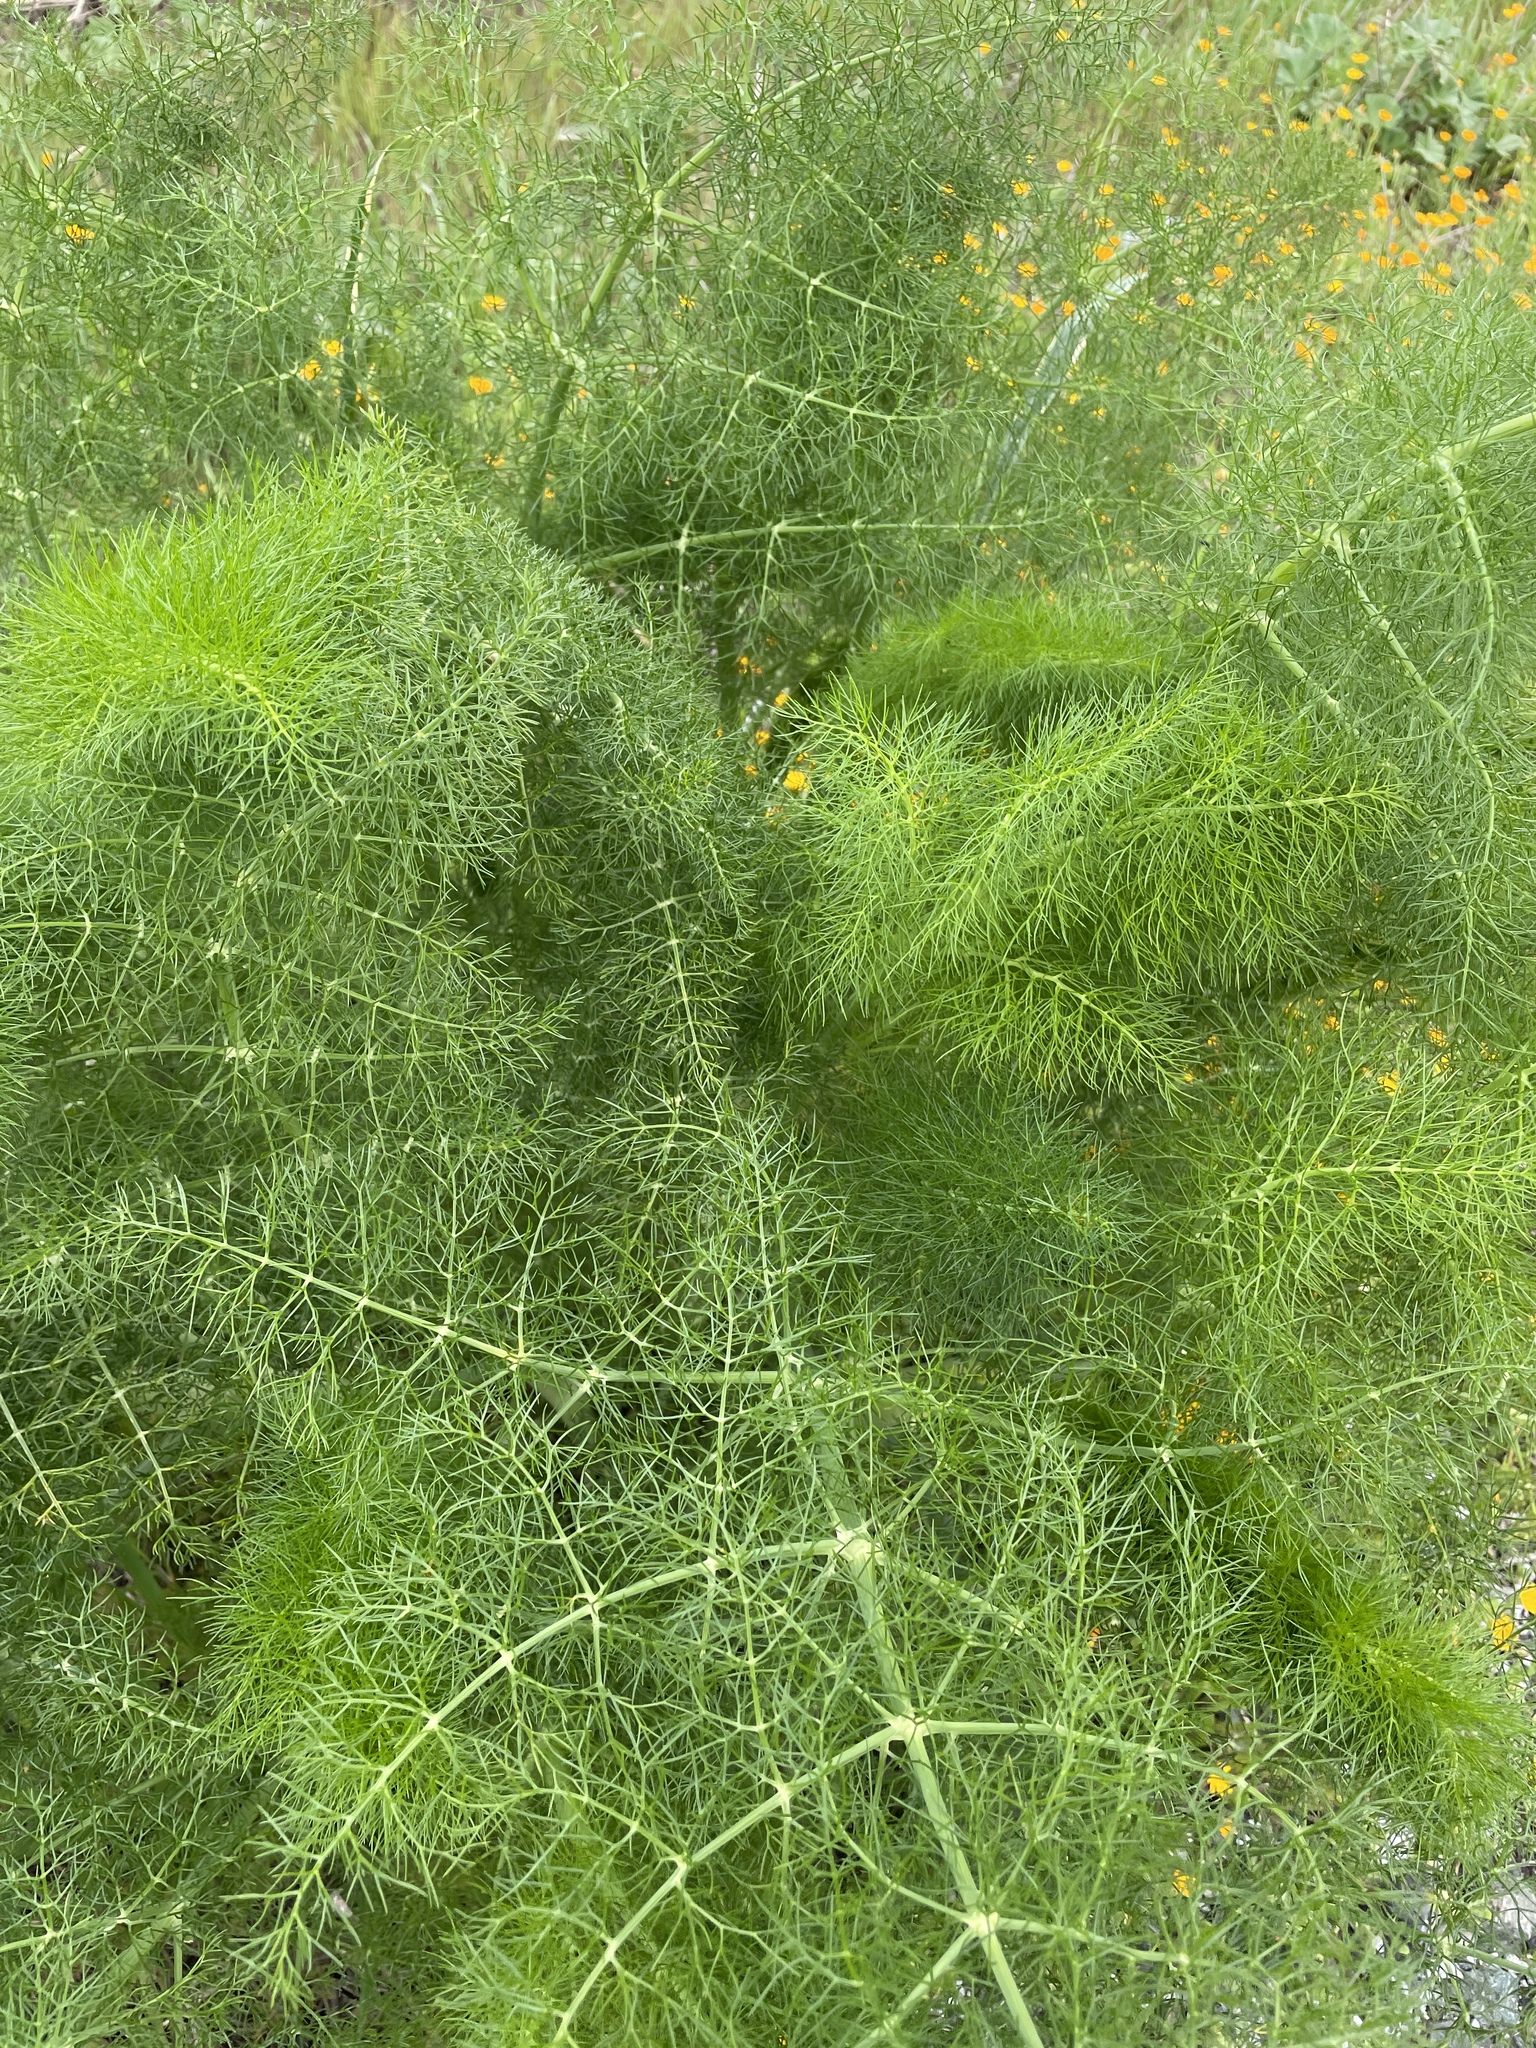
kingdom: Plantae
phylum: Tracheophyta
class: Magnoliopsida
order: Apiales
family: Apiaceae
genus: Foeniculum
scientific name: Foeniculum vulgare
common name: Fennel
